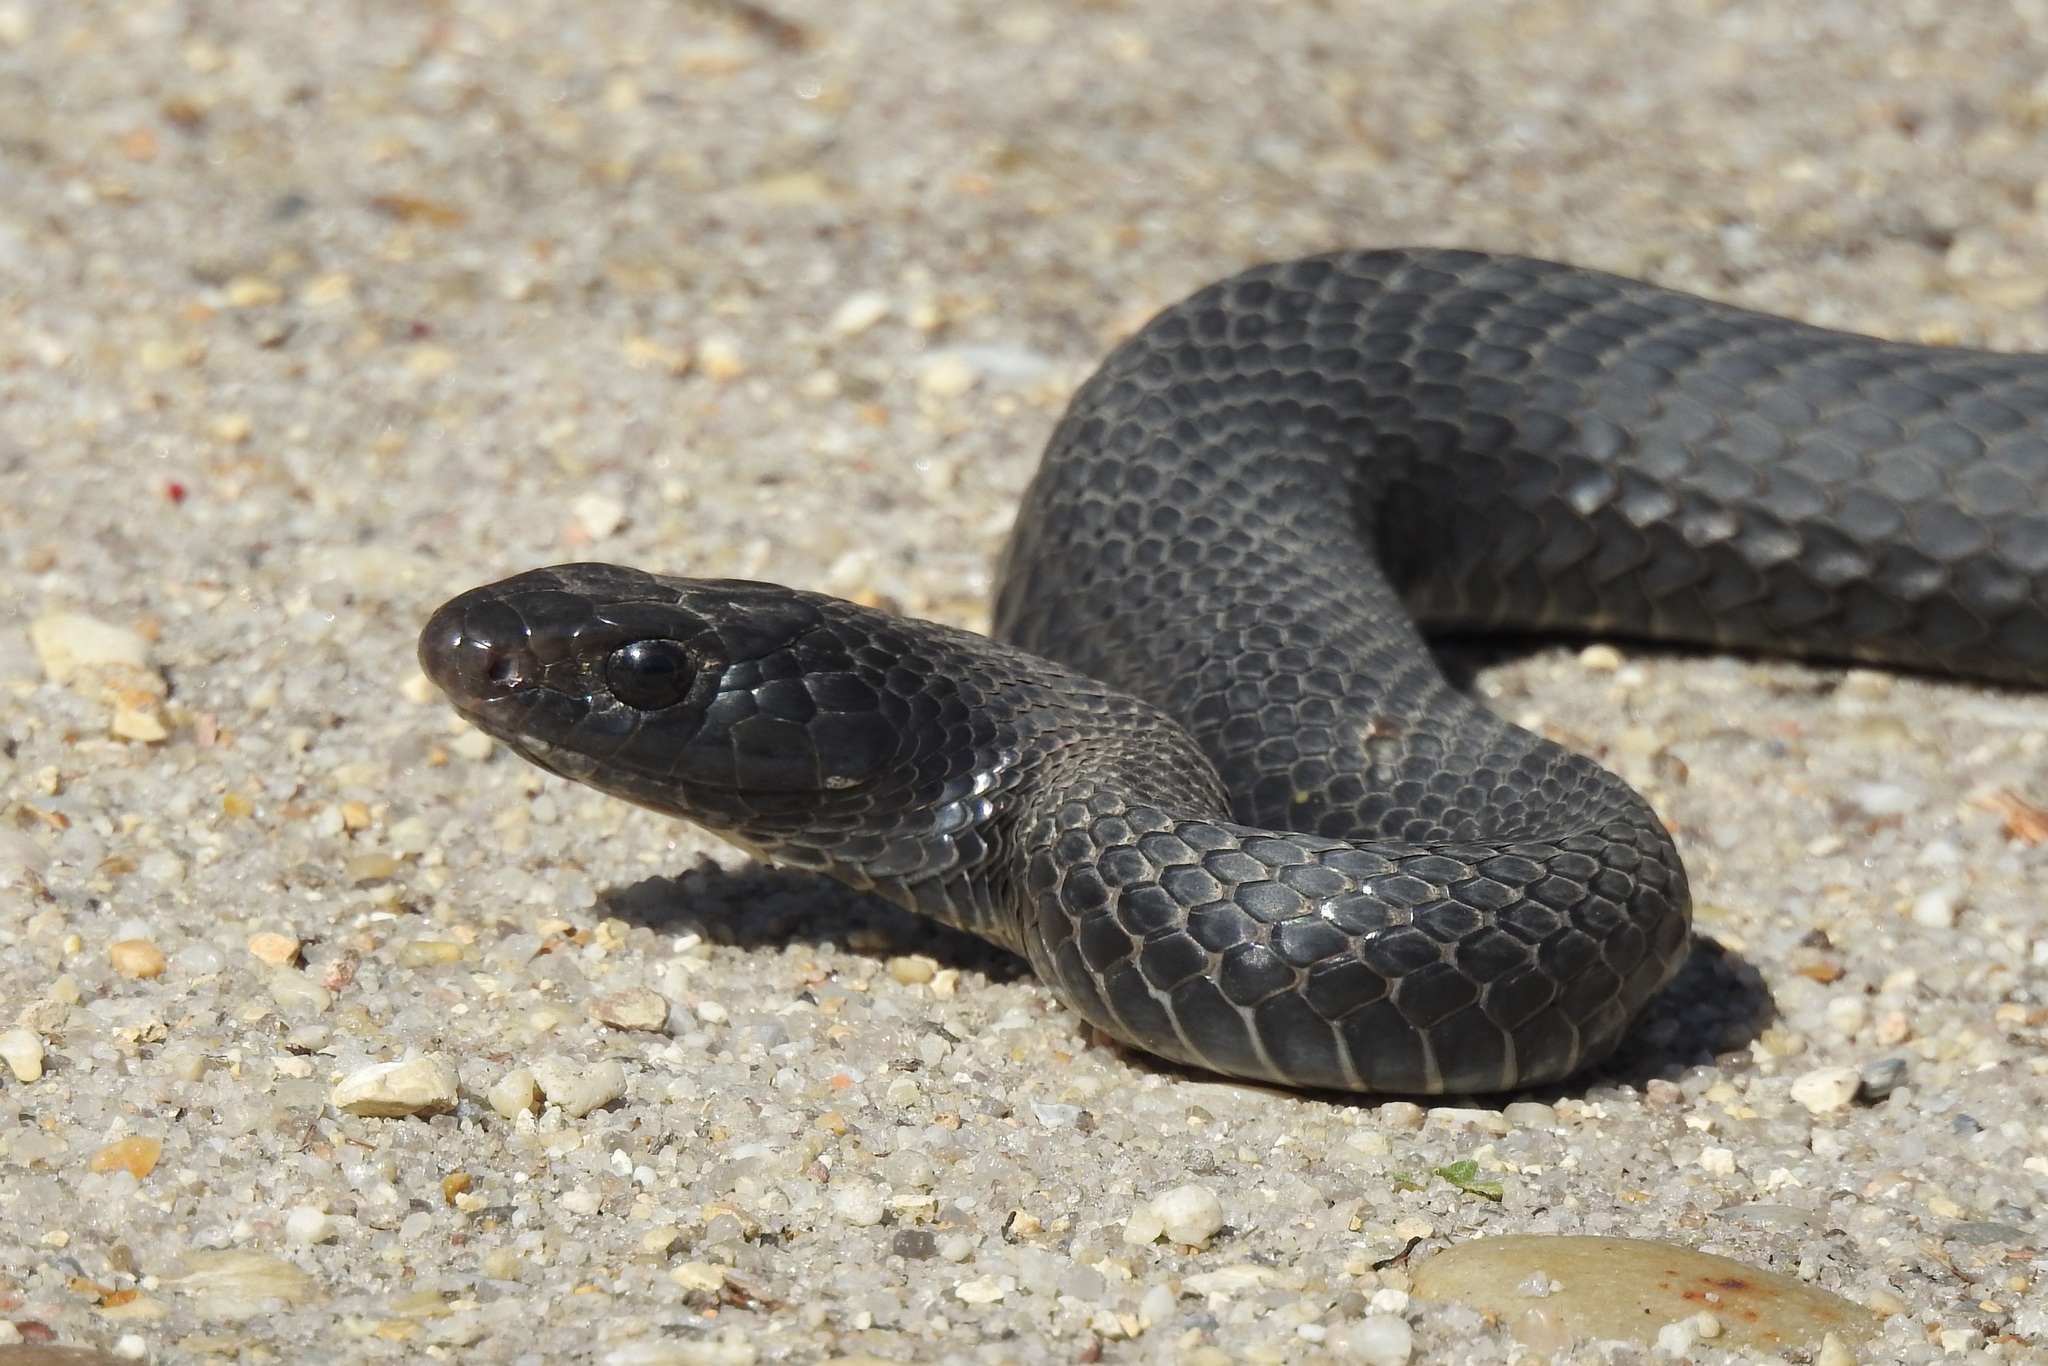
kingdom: Animalia
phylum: Chordata
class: Squamata
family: Colubridae
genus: Coluber
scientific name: Coluber constrictor
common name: Eastern racer
